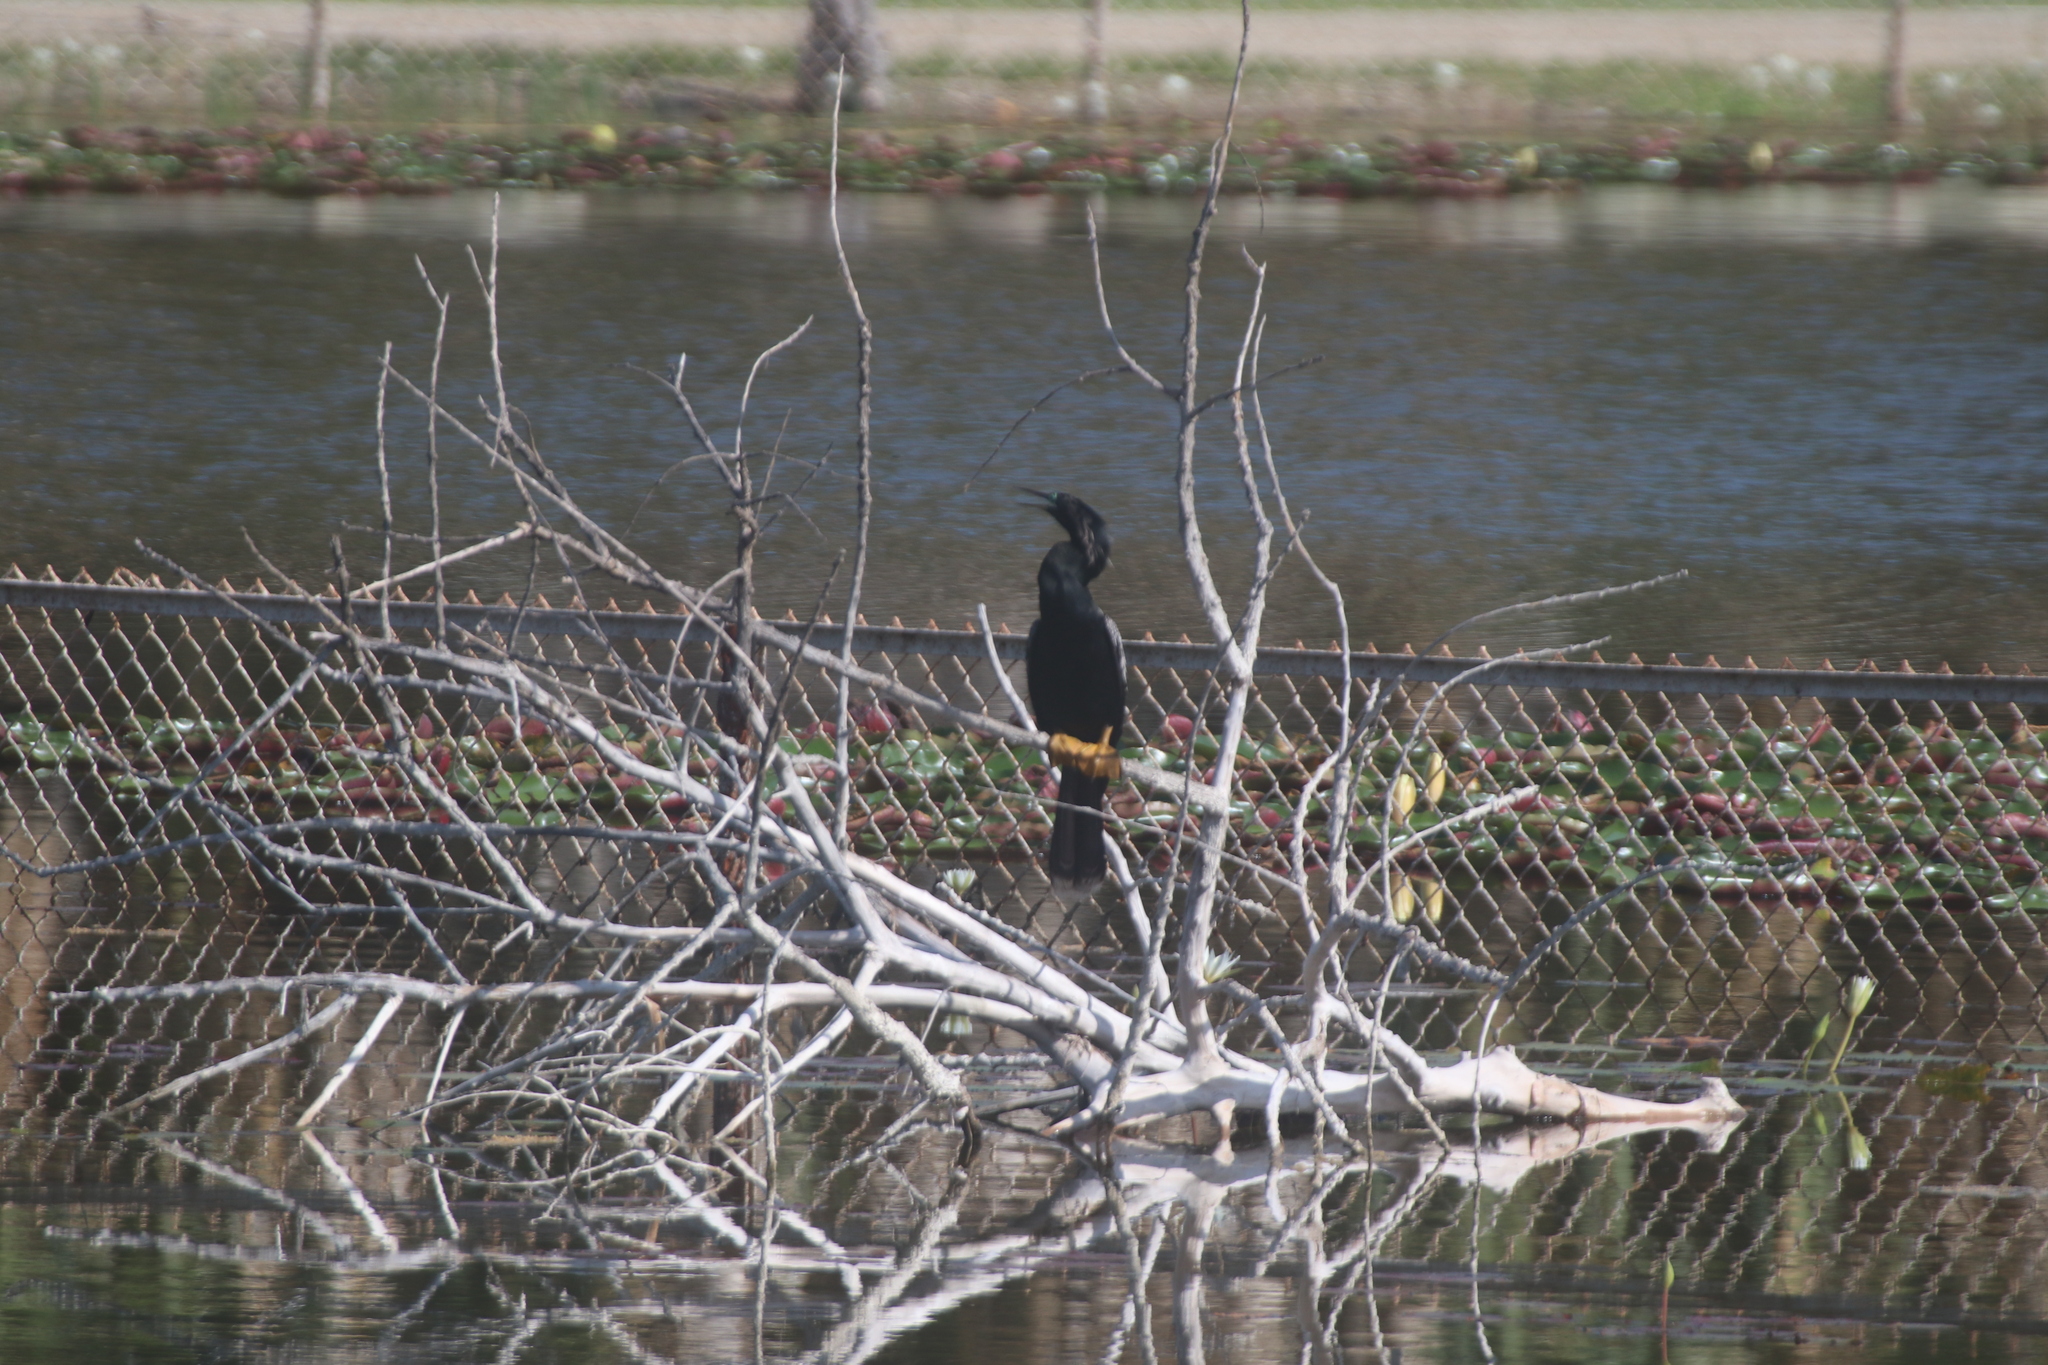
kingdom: Animalia
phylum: Chordata
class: Aves
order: Suliformes
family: Anhingidae
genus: Anhinga
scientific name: Anhinga anhinga
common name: Anhinga
